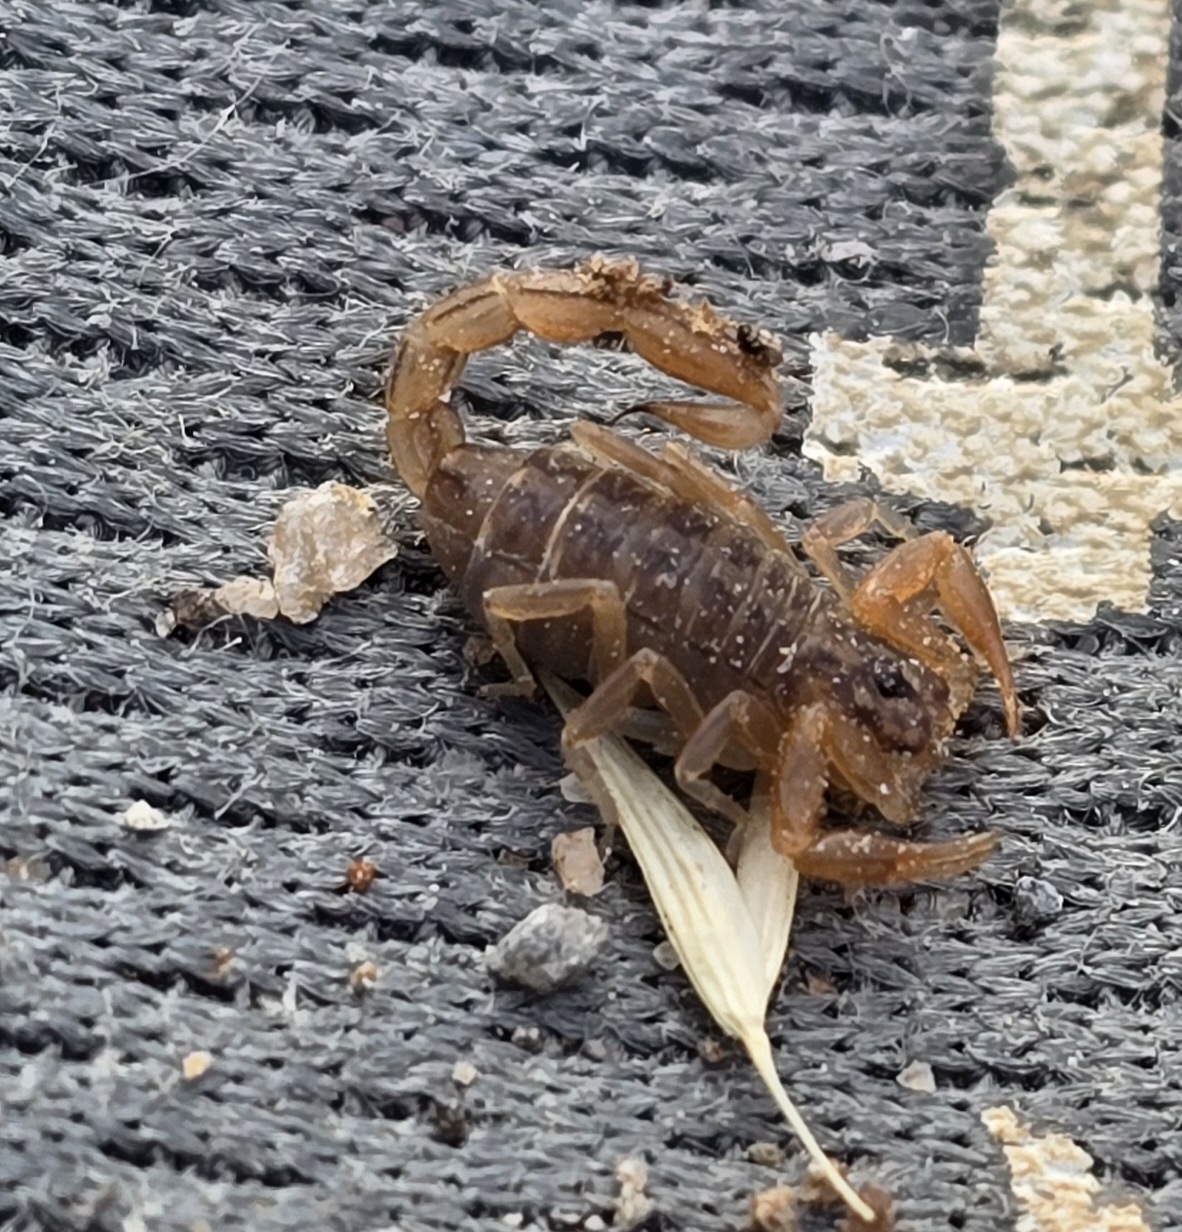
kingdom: Animalia
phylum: Arthropoda
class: Arachnida
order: Scorpiones
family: Vaejovidae
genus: Paravaejovis
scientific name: Paravaejovis spinigerus
